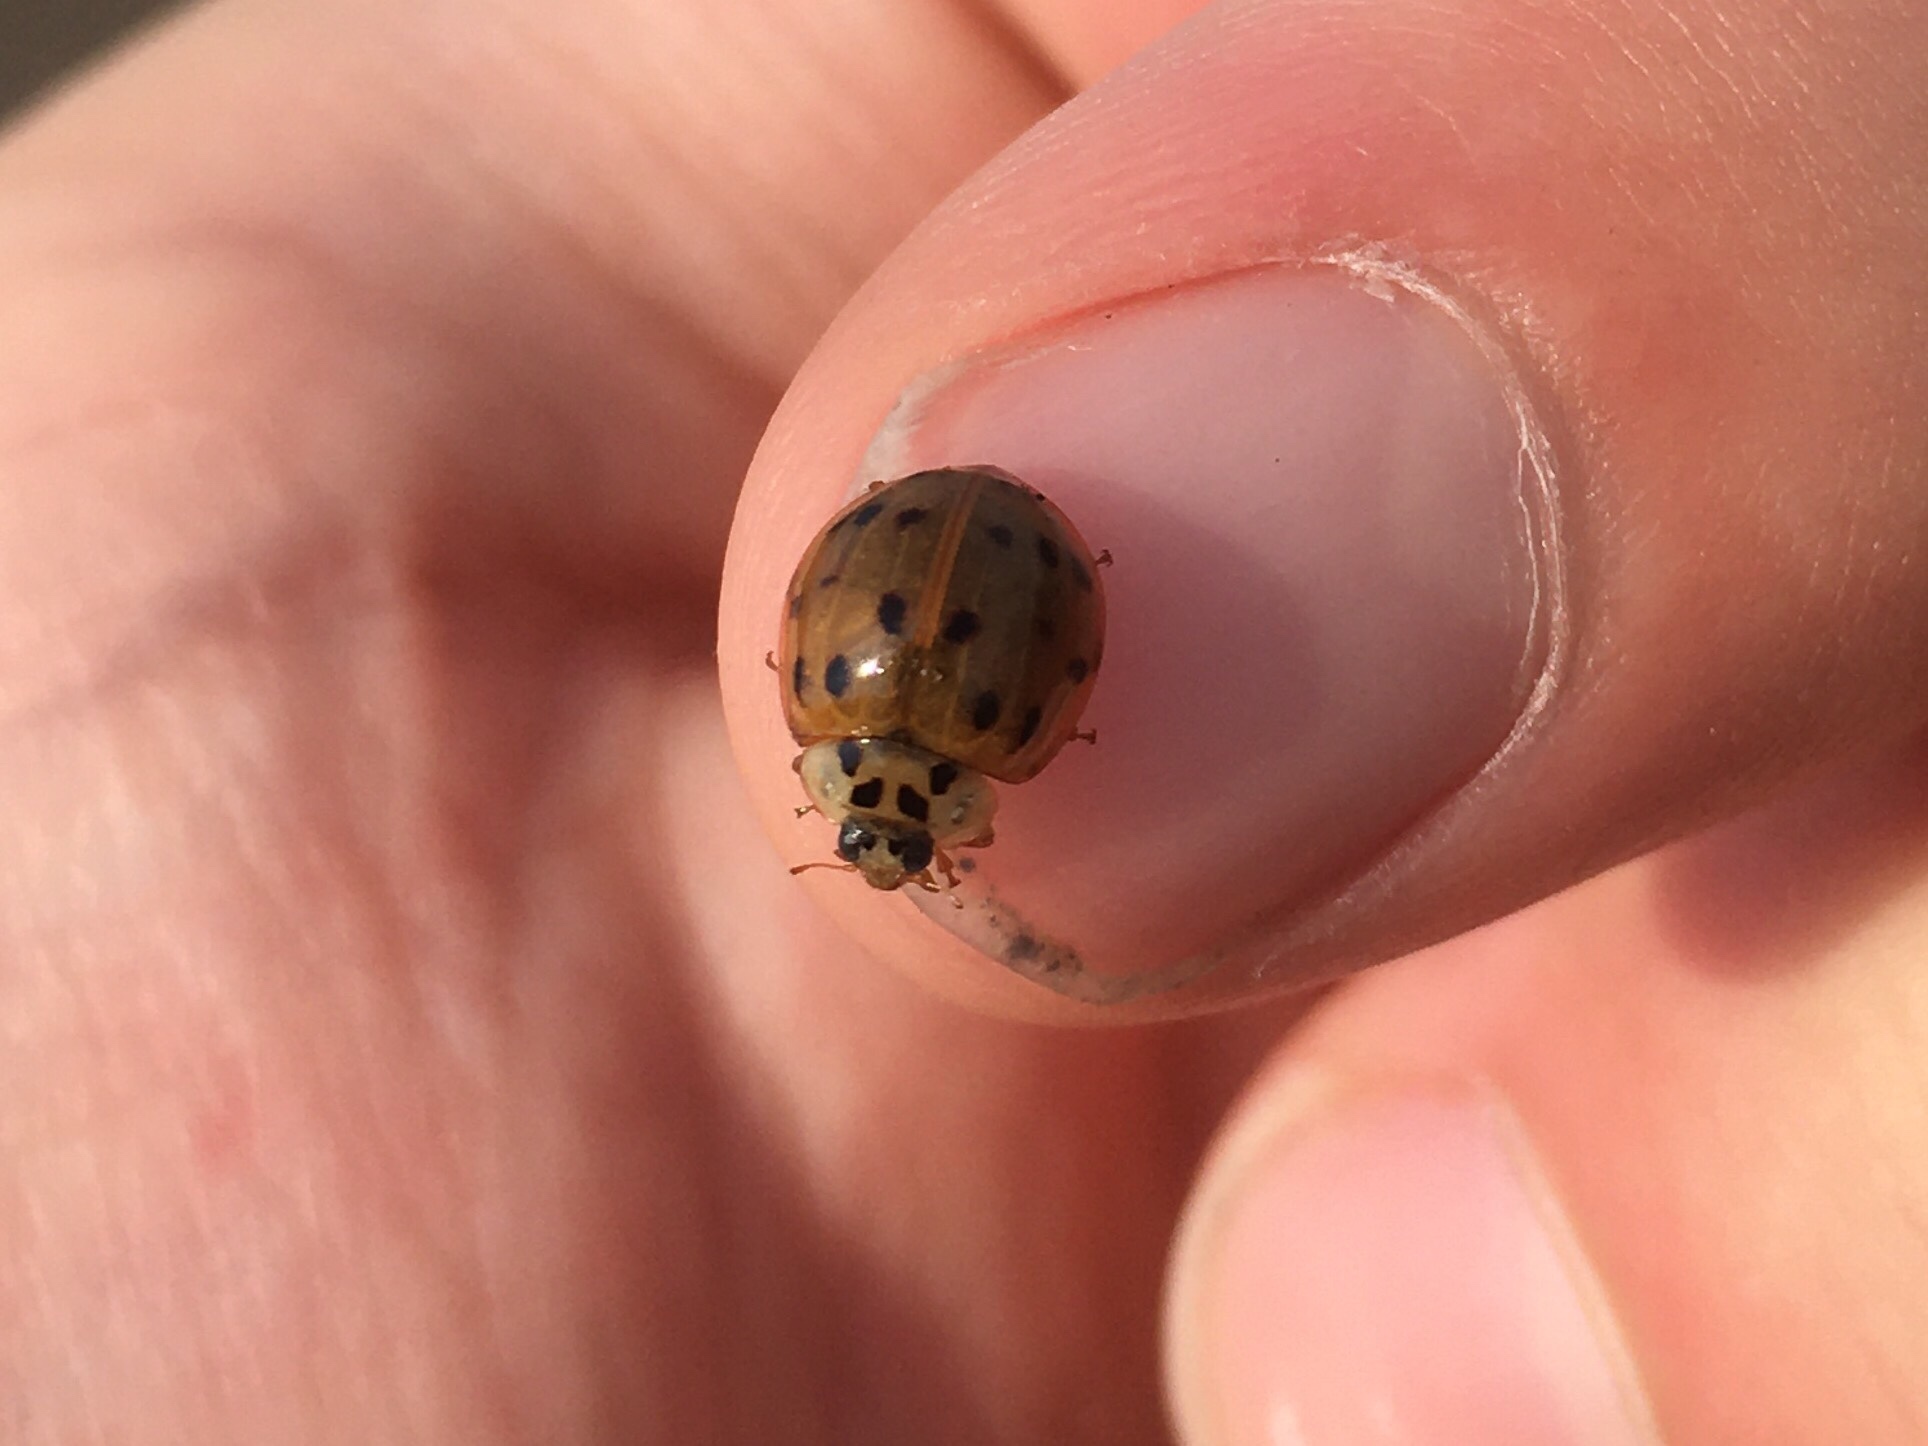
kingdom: Animalia
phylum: Arthropoda
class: Insecta
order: Coleoptera
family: Coccinellidae
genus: Harmonia
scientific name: Harmonia axyridis
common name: Harlequin ladybird
